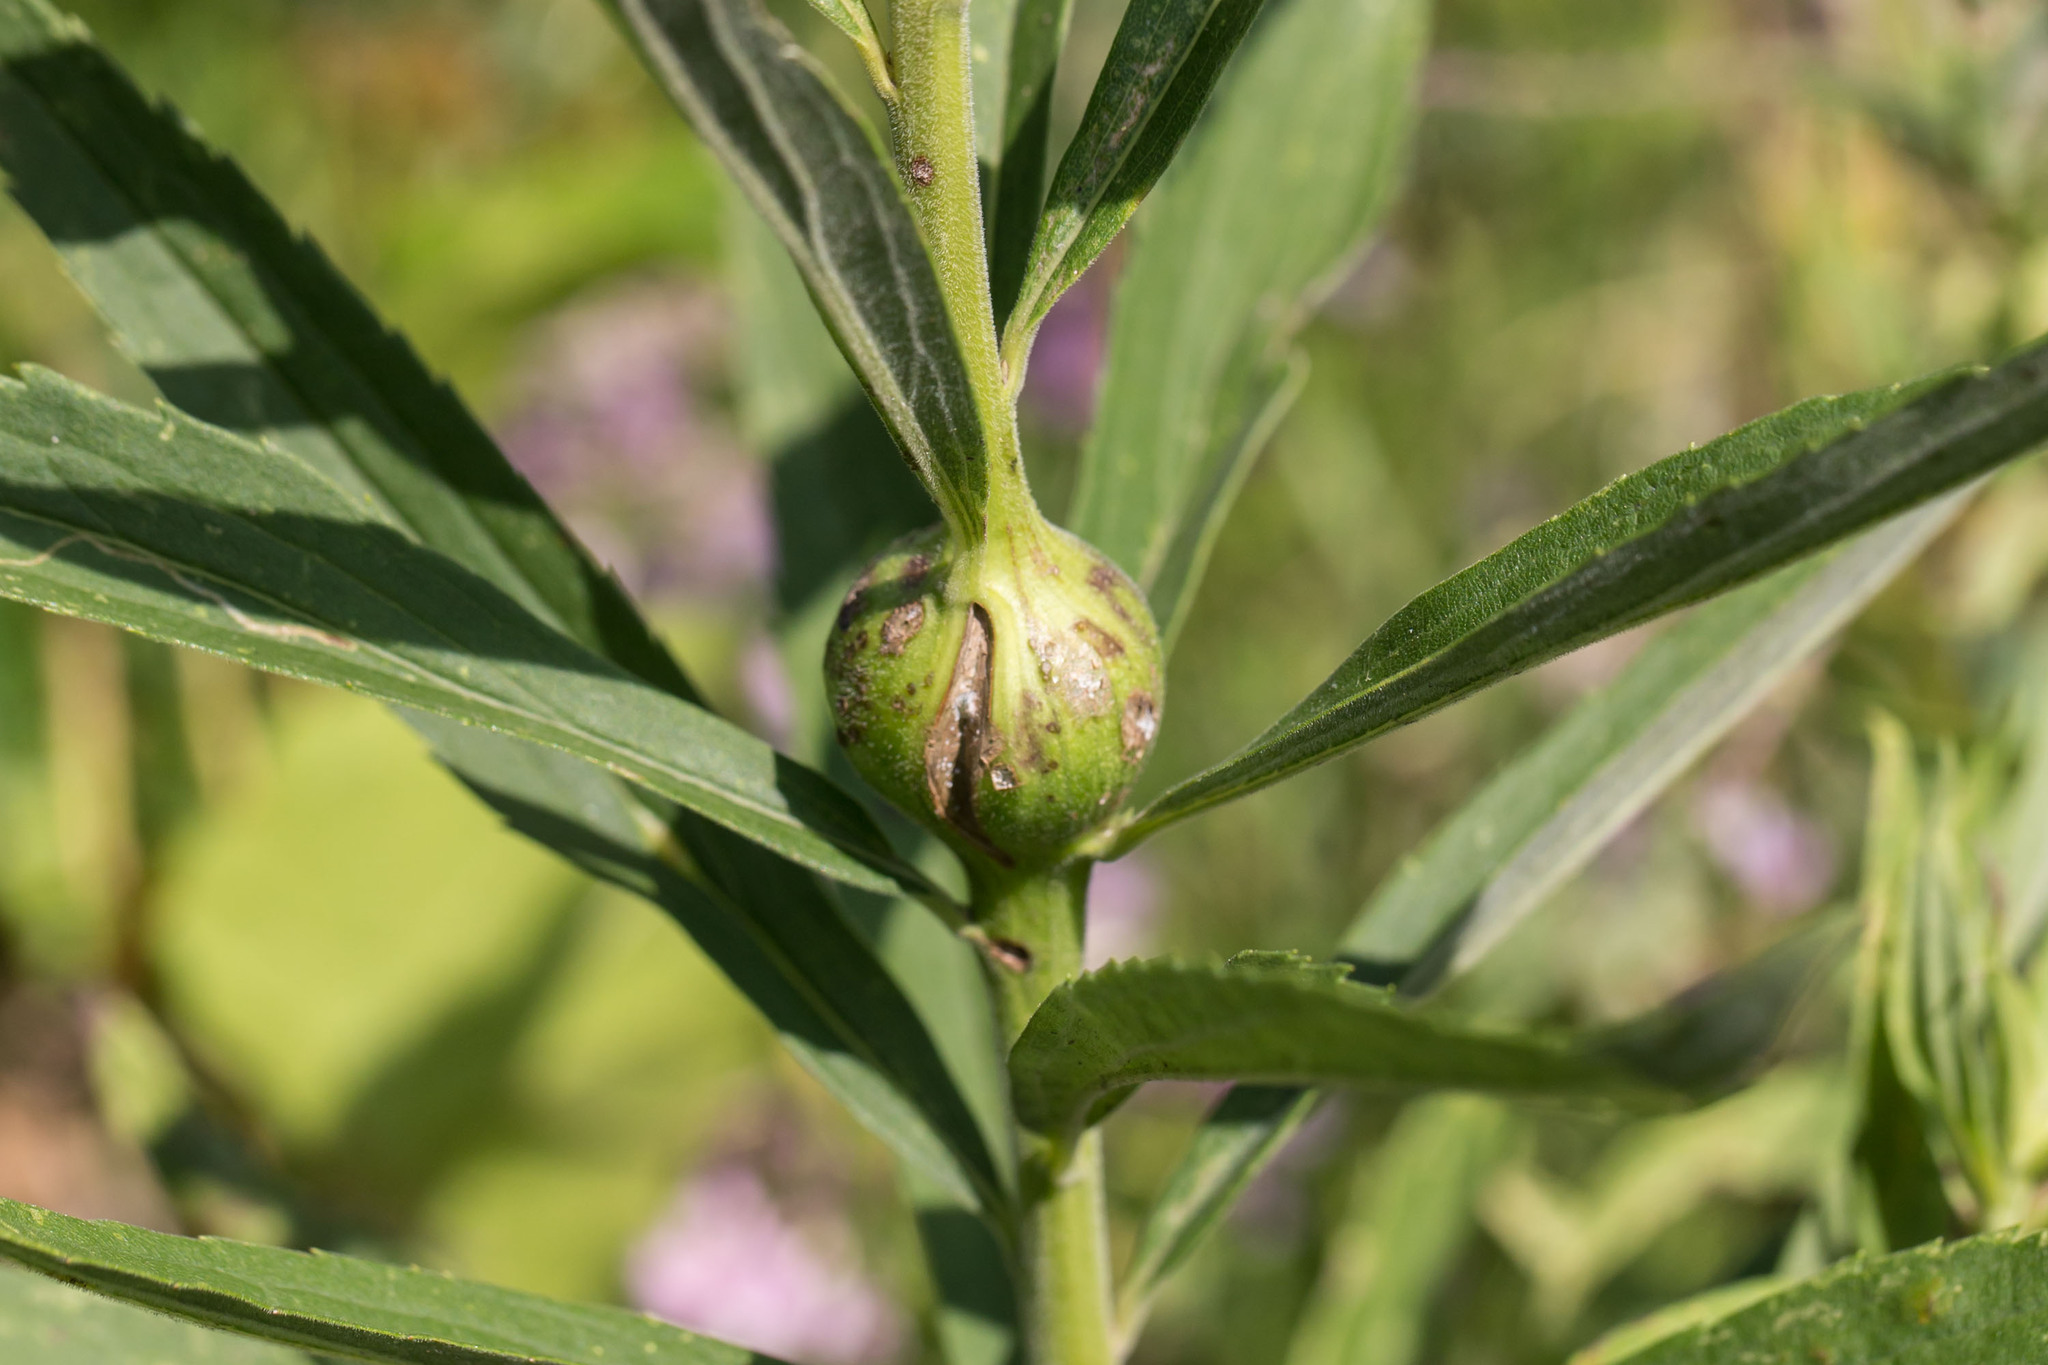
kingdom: Animalia
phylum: Arthropoda
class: Insecta
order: Diptera
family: Tephritidae
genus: Eurosta
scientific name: Eurosta solidaginis
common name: Goldenrod gall fly
